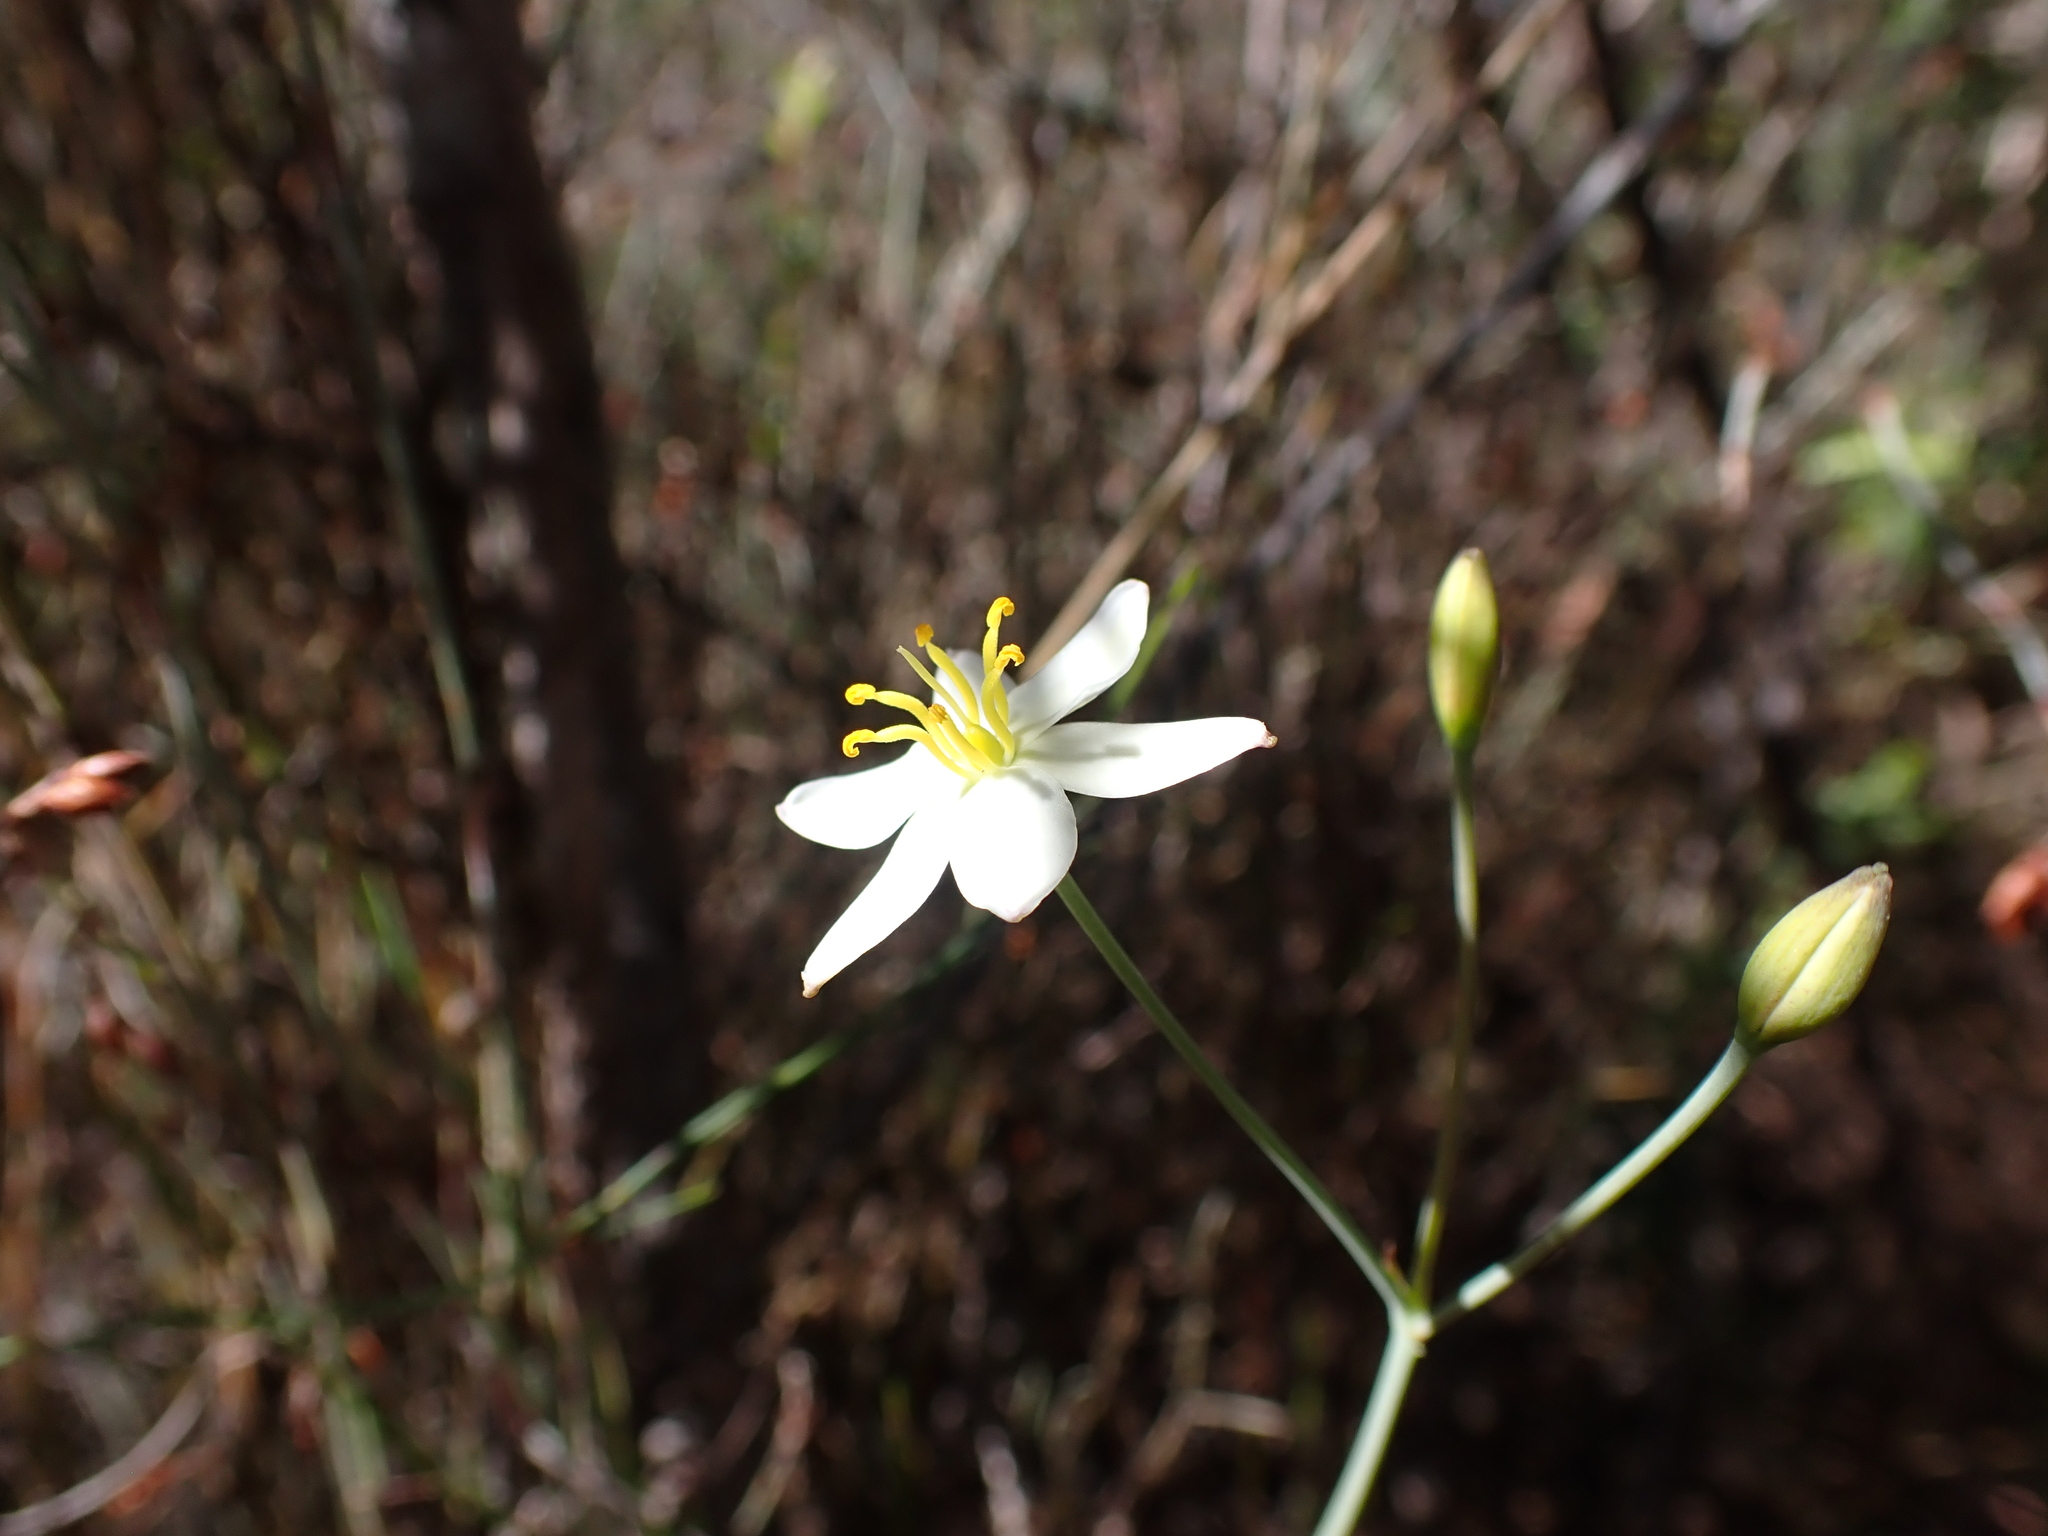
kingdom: Plantae
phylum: Tracheophyta
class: Liliopsida
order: Asparagales
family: Asphodelaceae
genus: Thelionema
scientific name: Thelionema caespitosum
